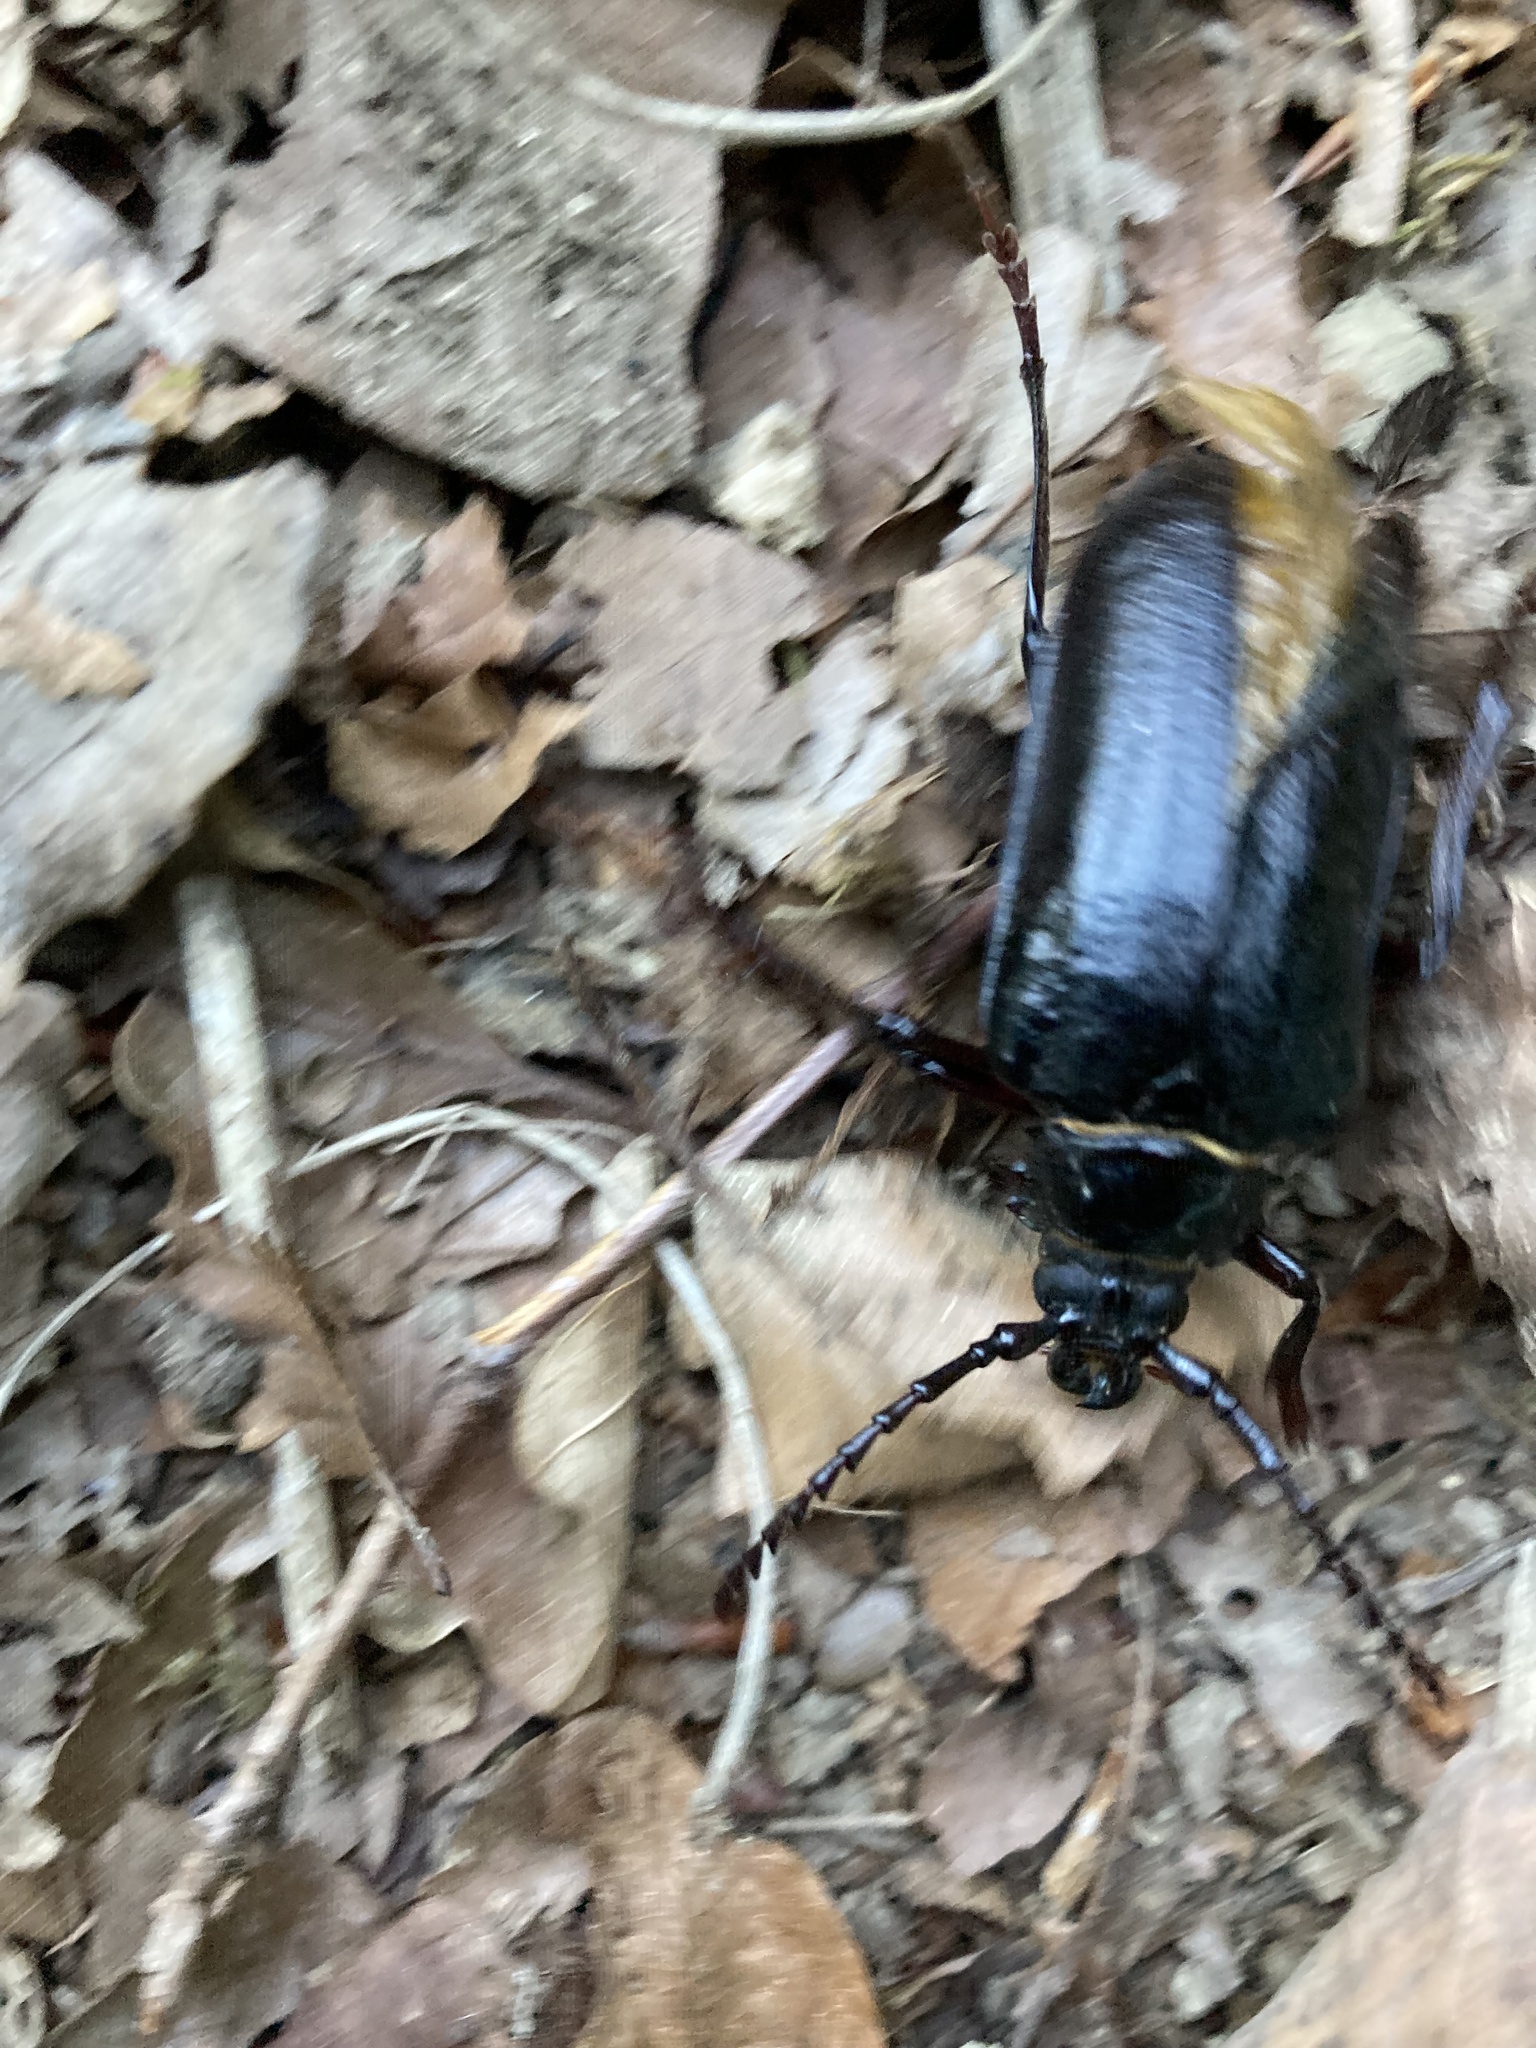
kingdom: Animalia
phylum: Arthropoda
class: Insecta
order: Coleoptera
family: Cerambycidae
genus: Prionus
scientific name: Prionus coriarius
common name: Tanner beetle
